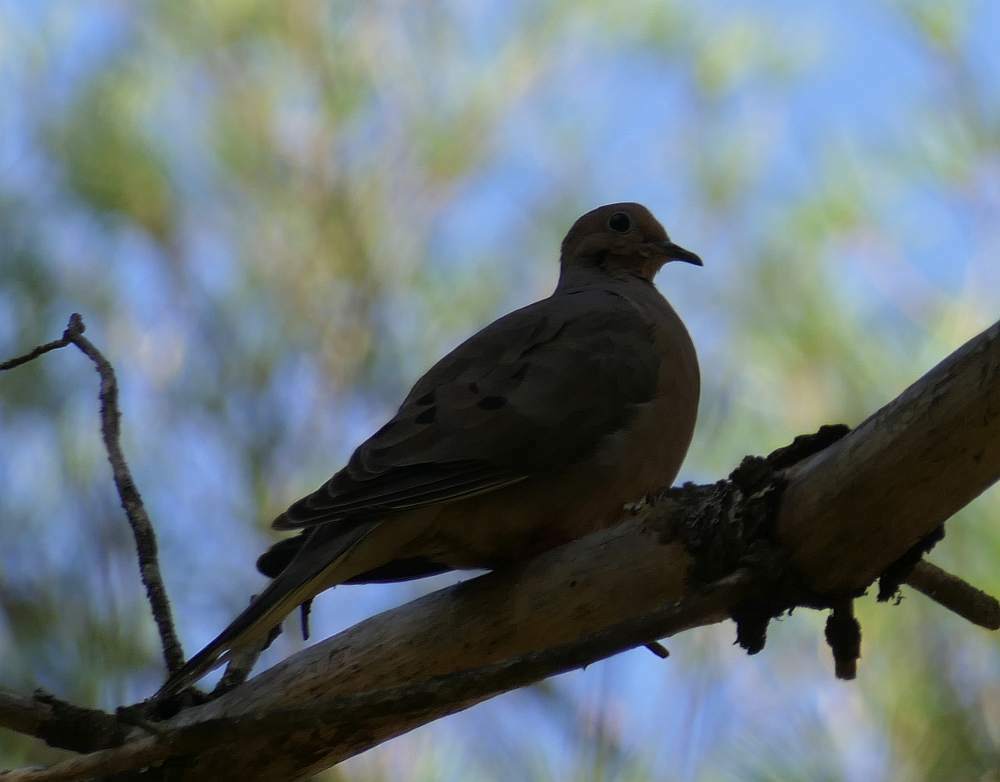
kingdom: Animalia
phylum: Chordata
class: Aves
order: Columbiformes
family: Columbidae
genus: Zenaida
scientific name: Zenaida macroura
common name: Mourning dove
